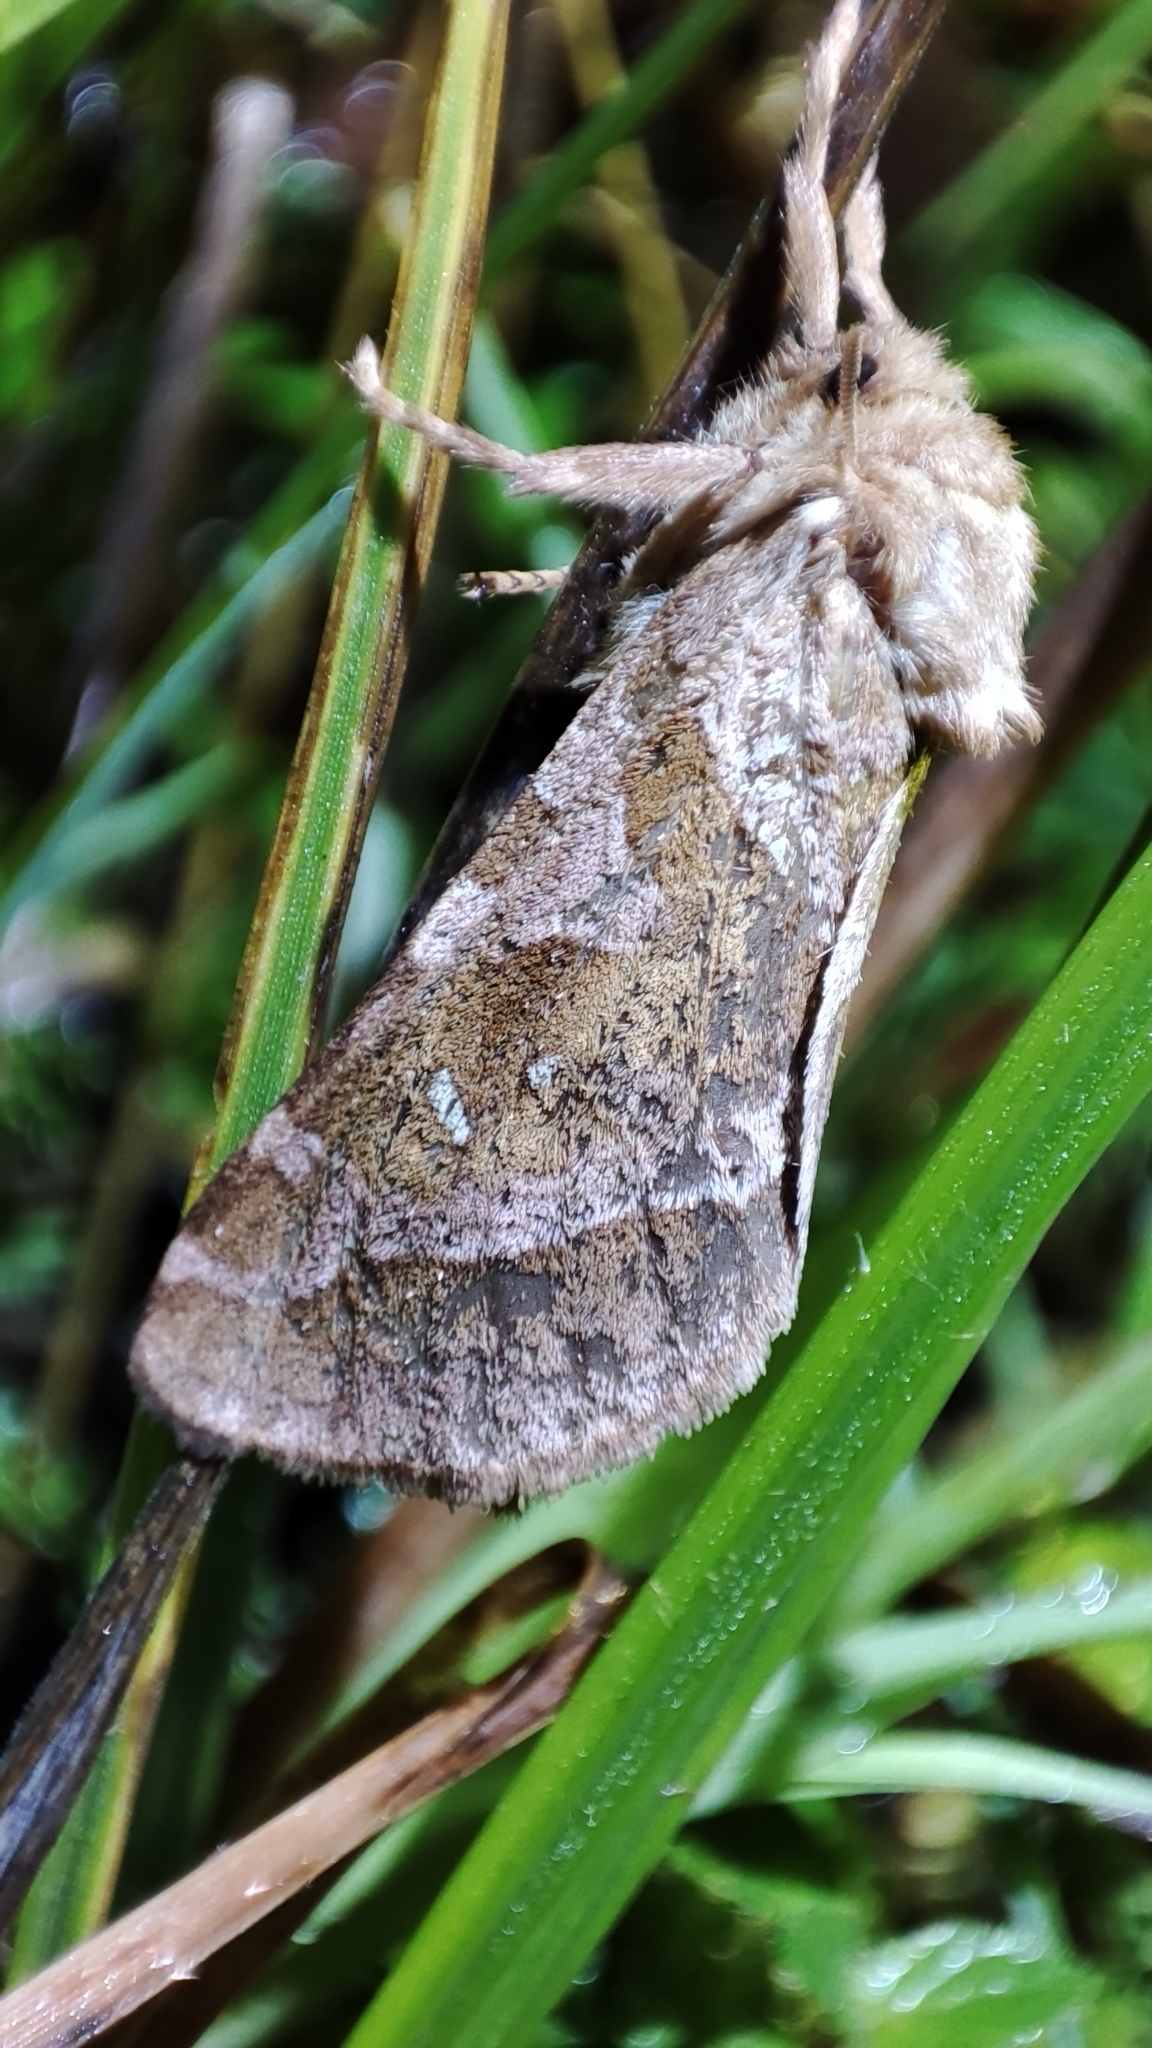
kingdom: Animalia
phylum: Arthropoda
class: Insecta
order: Lepidoptera
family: Hepialidae
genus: Triodia
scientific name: Triodia nubifer
